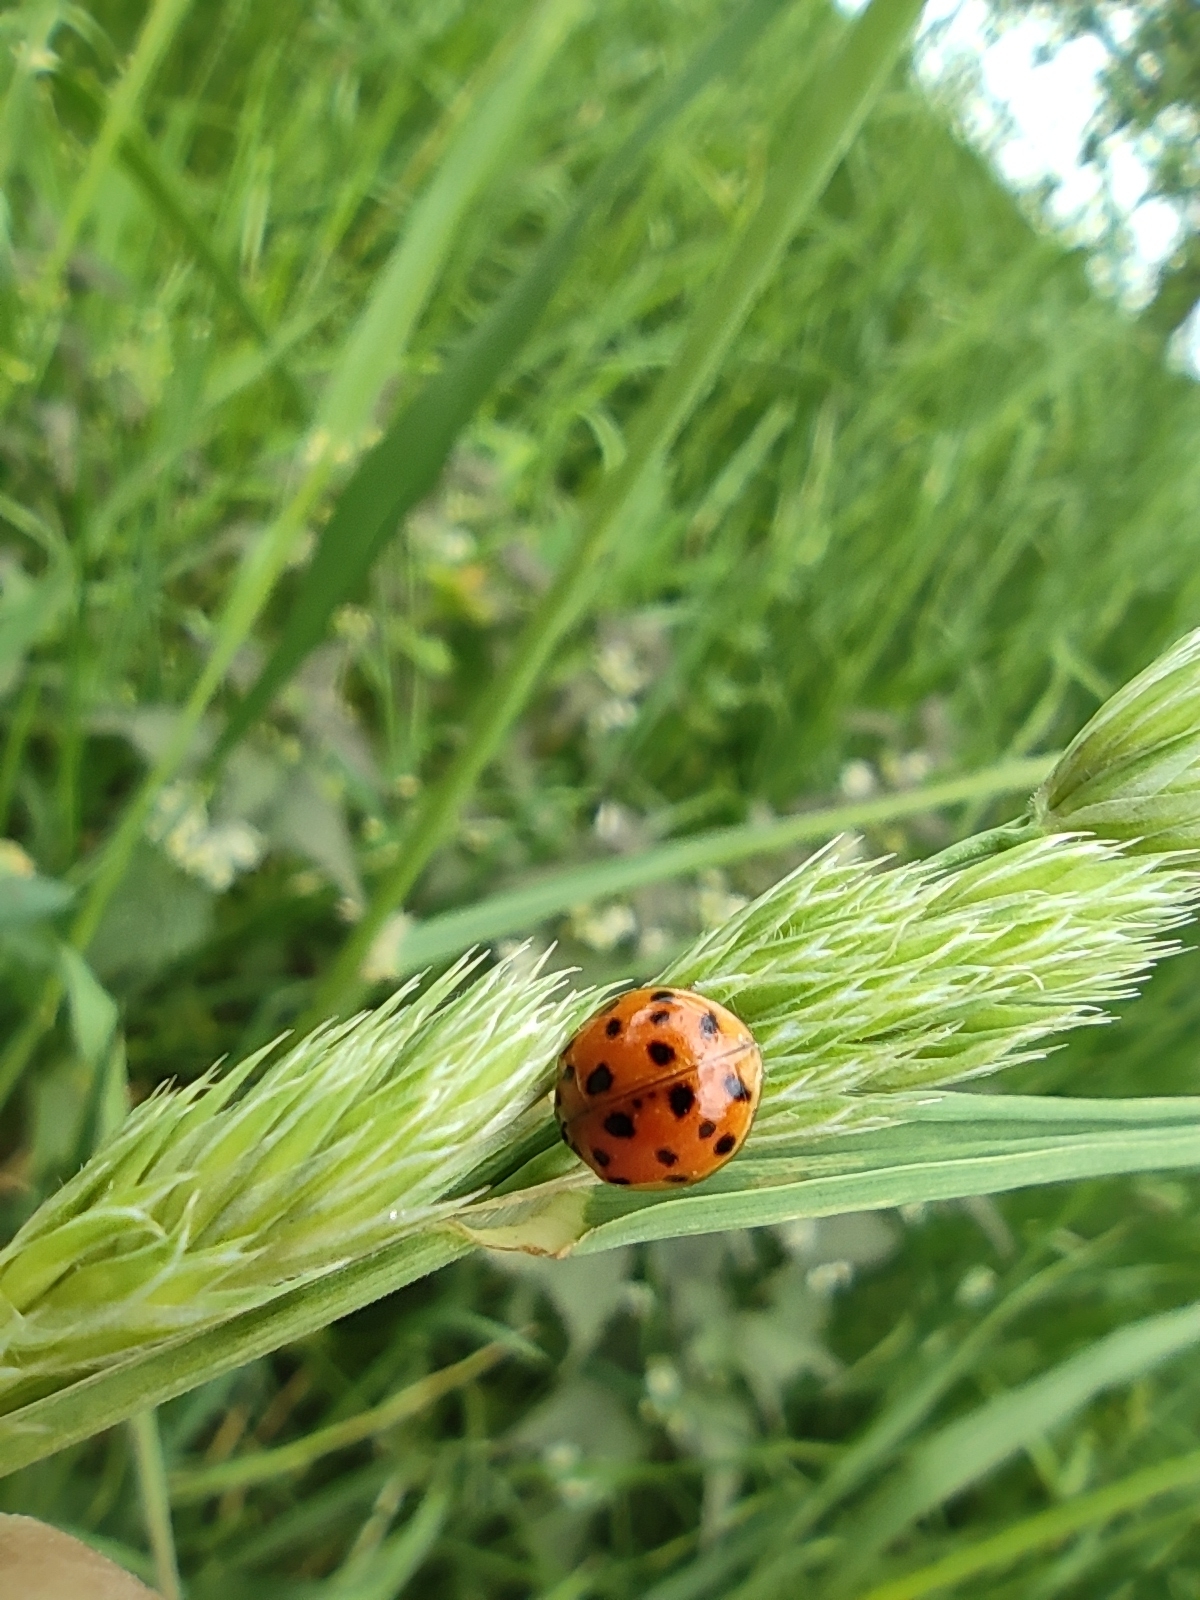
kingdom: Animalia
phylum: Arthropoda
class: Insecta
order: Coleoptera
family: Coccinellidae
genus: Harmonia
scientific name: Harmonia axyridis
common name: Harlequin ladybird
